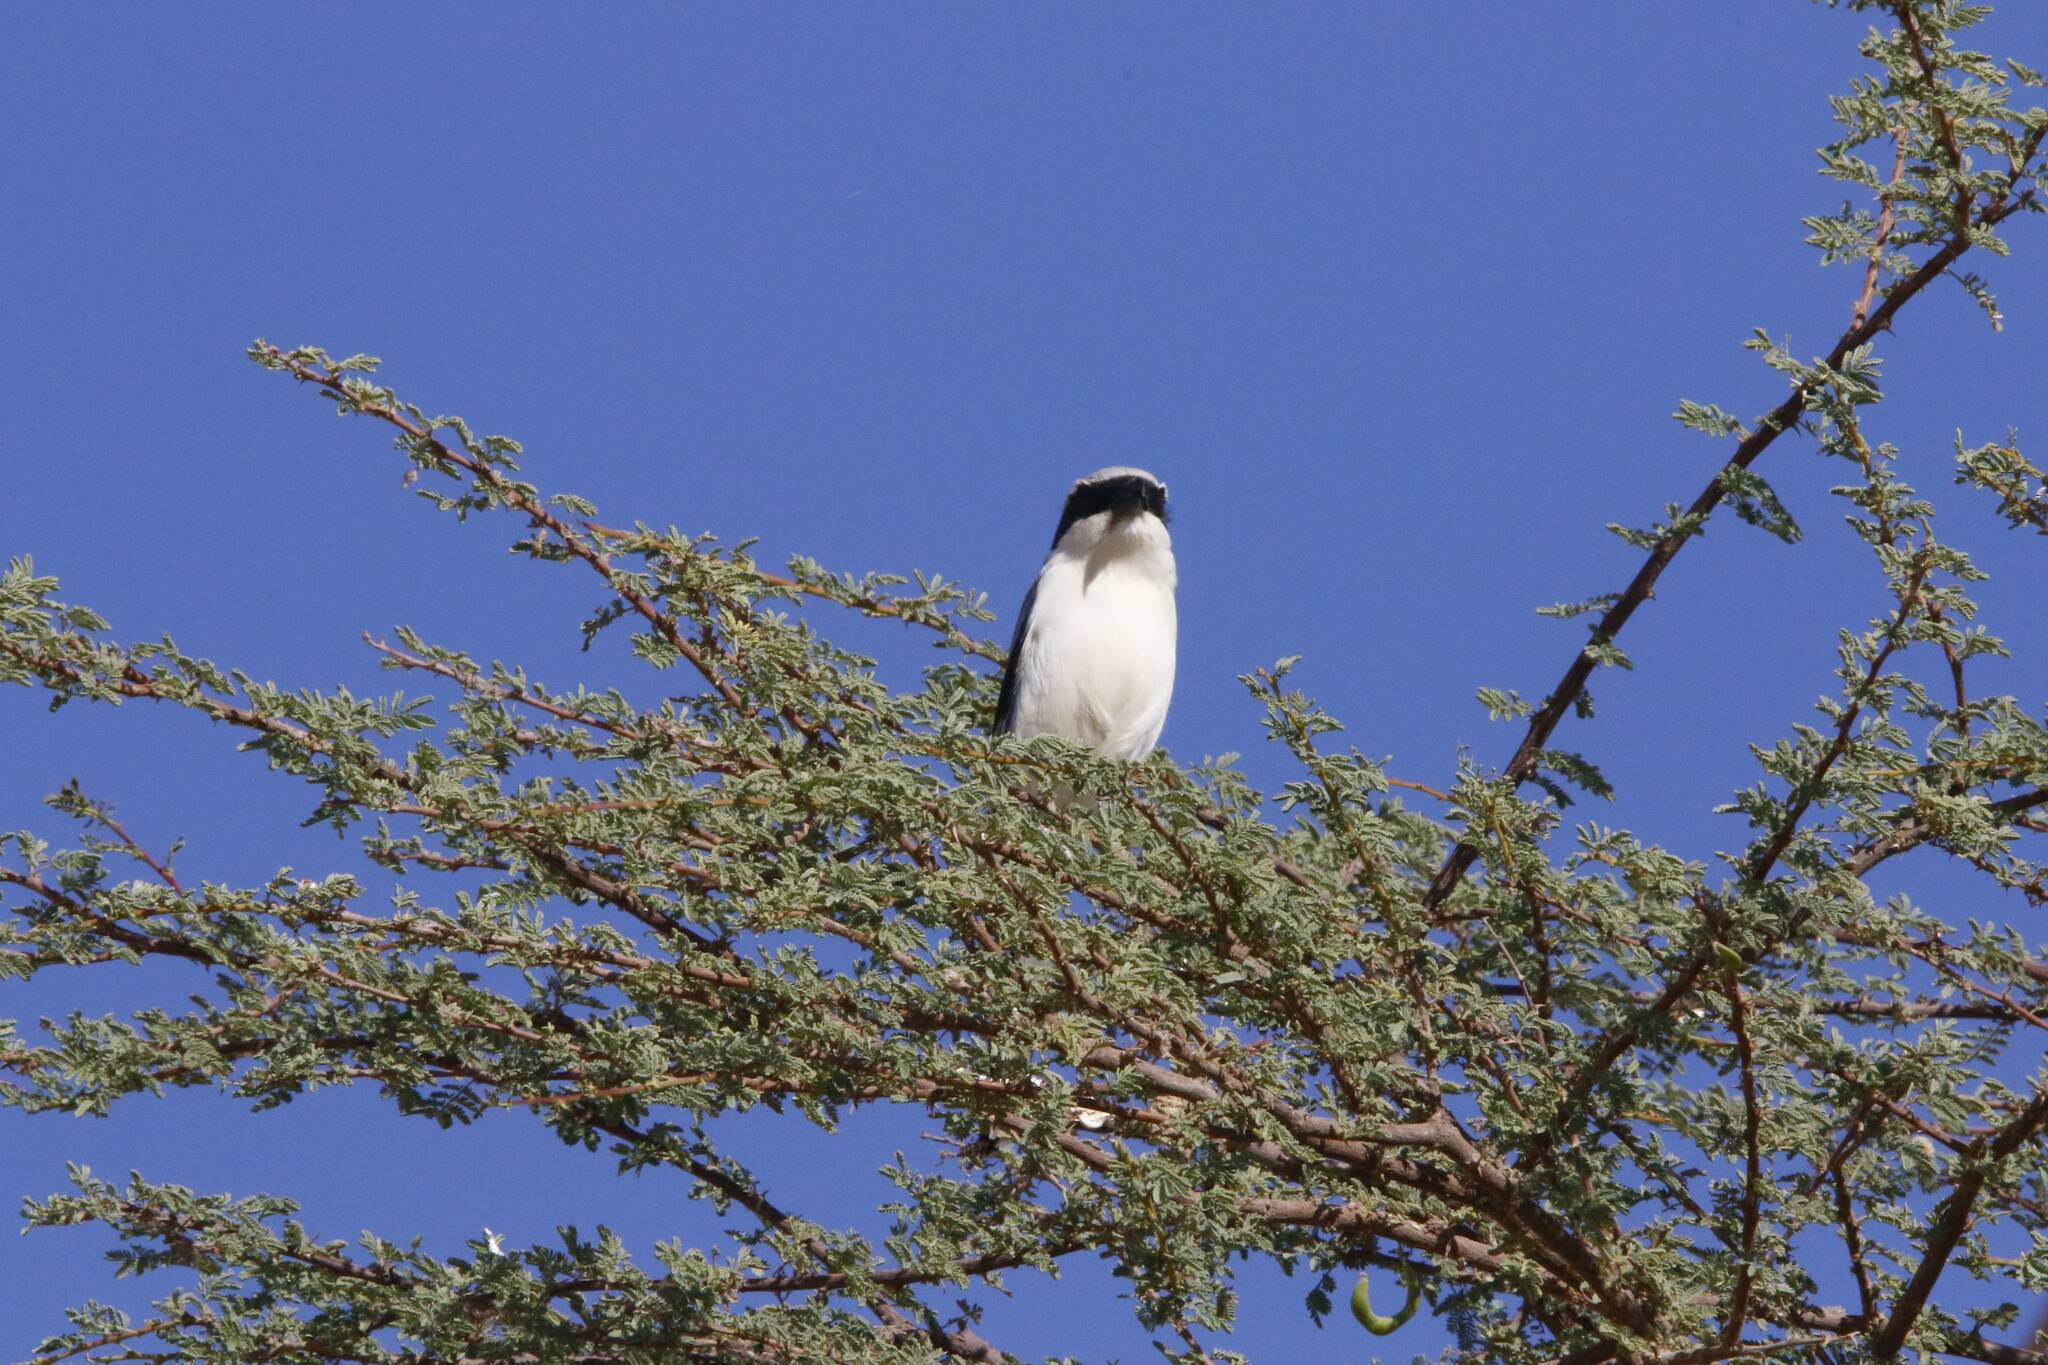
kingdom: Animalia
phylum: Chordata
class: Aves
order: Passeriformes
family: Laniidae
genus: Lanius
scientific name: Lanius excubitor
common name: Great grey shrike
